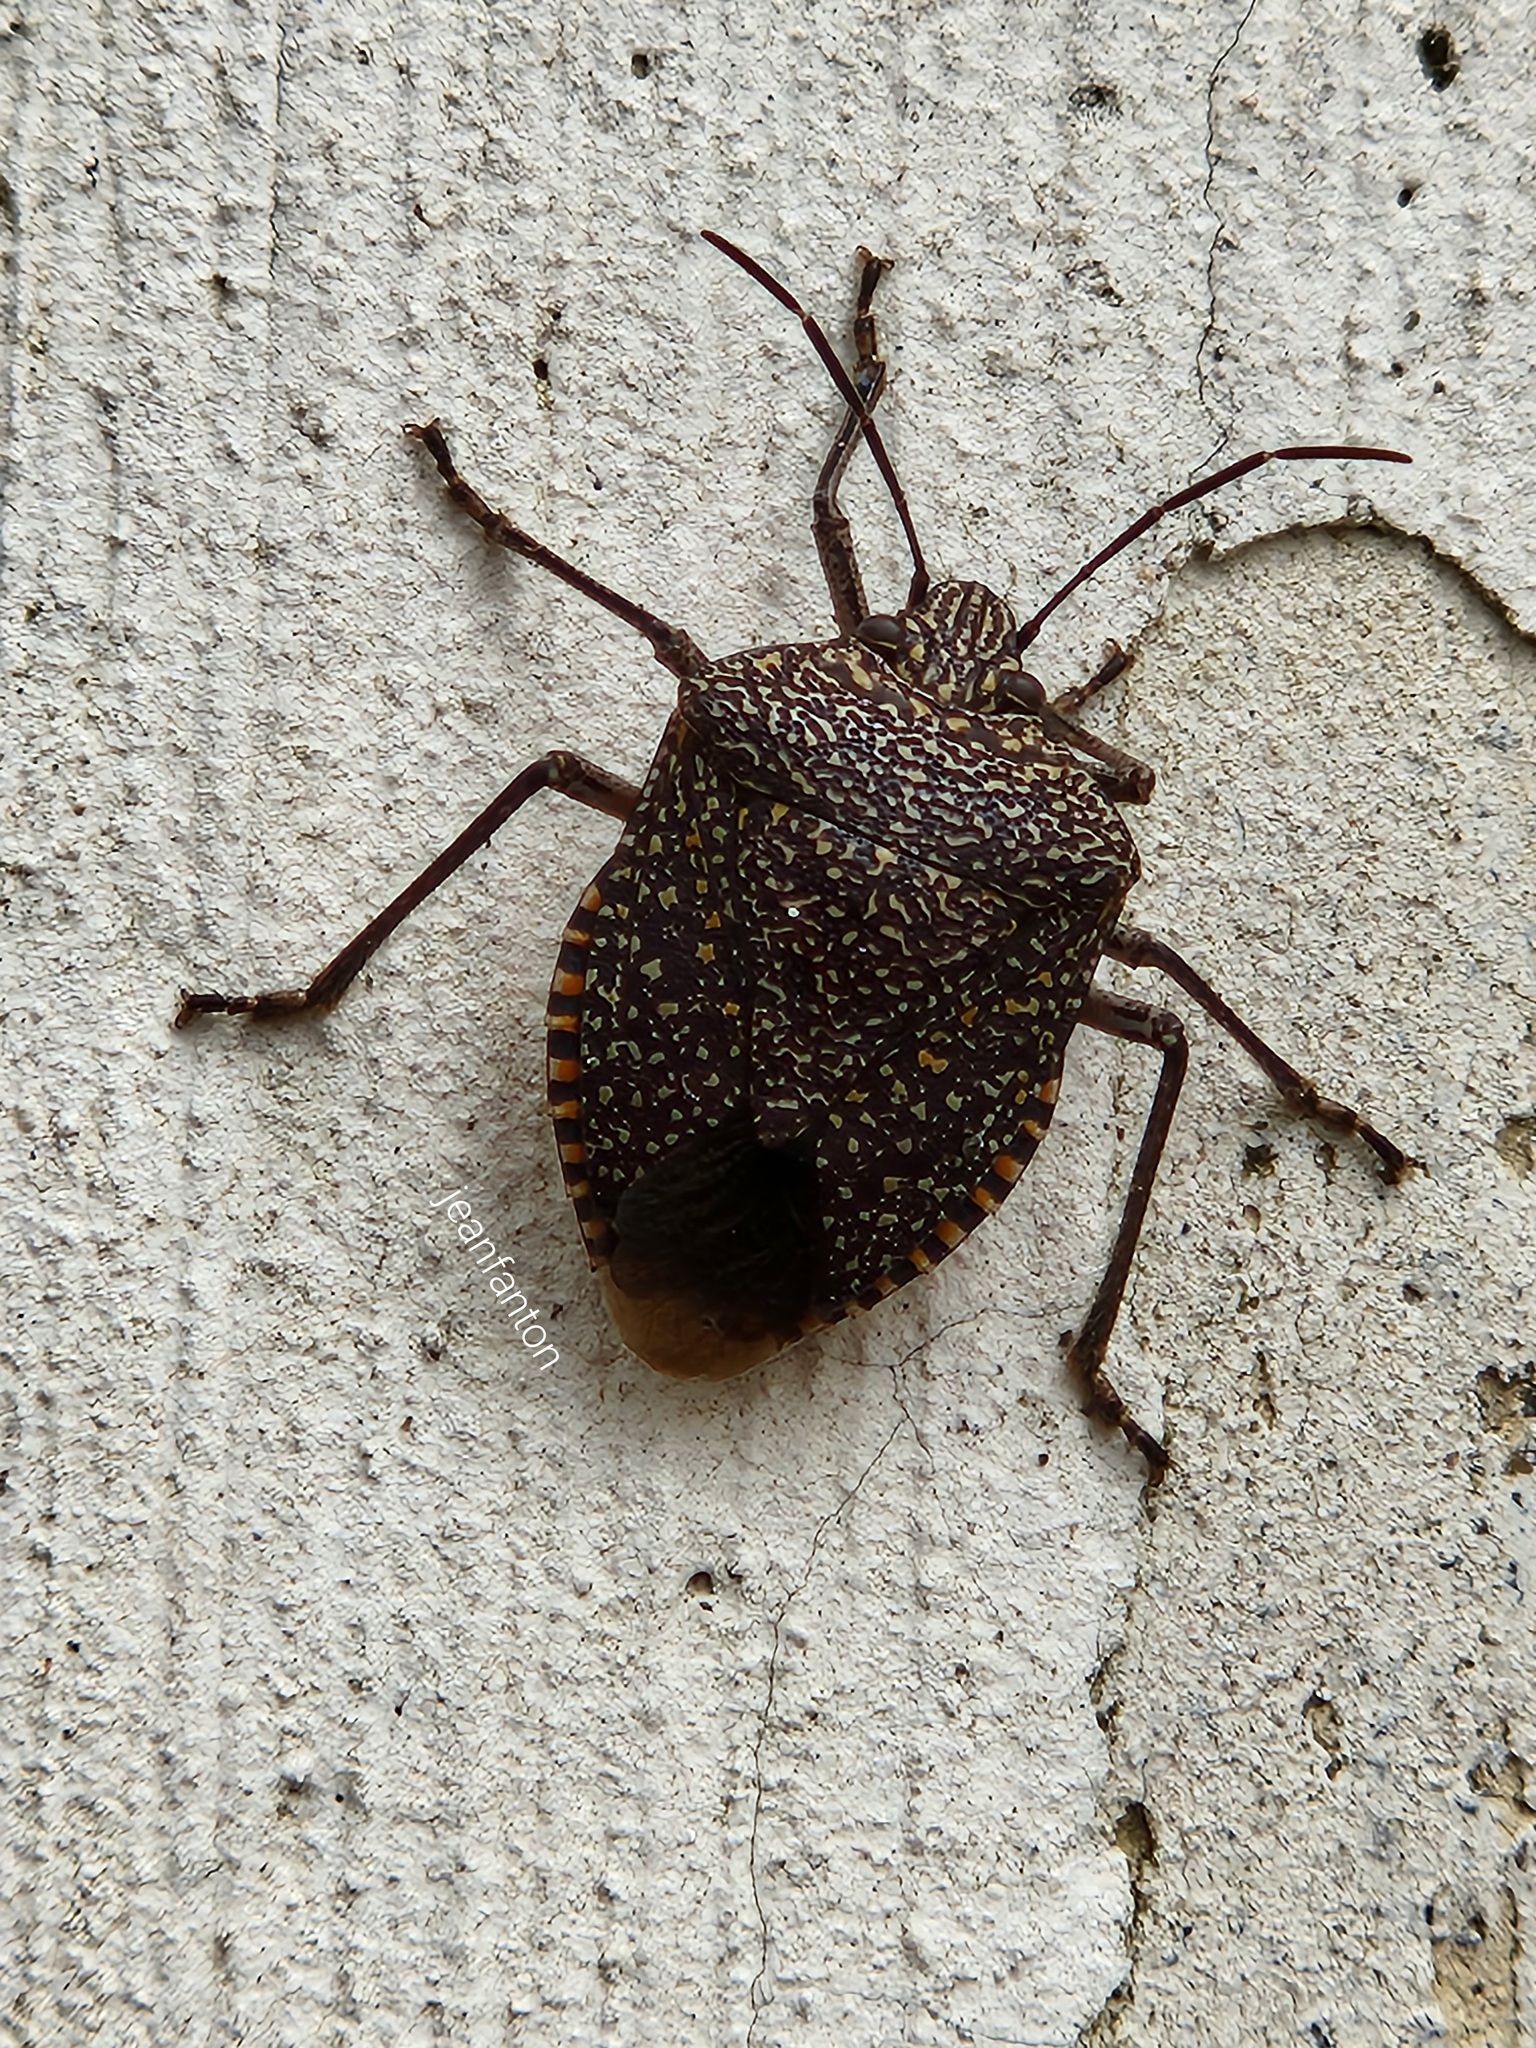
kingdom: Animalia
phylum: Arthropoda
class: Insecta
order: Hemiptera
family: Pentatomidae
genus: Pellaea
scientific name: Pellaea stictica
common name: Stink bug
